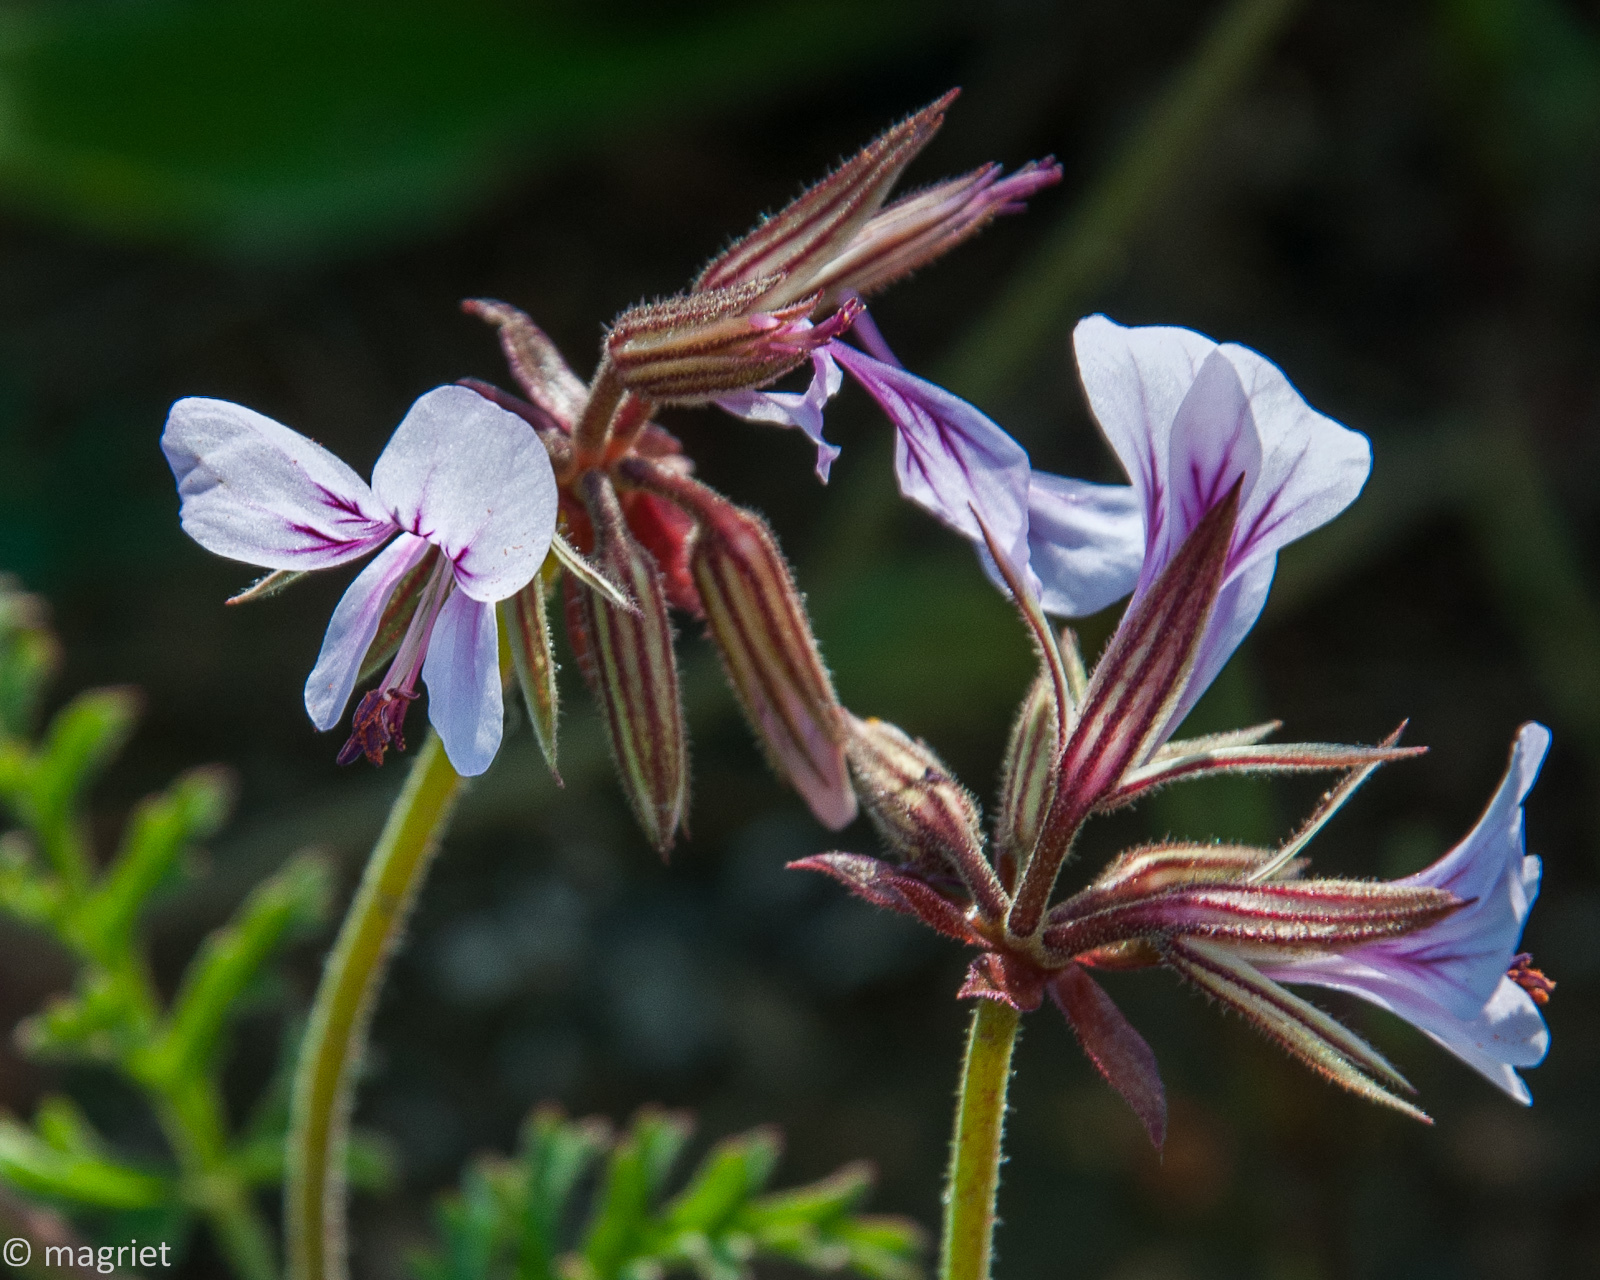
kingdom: Plantae
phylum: Tracheophyta
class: Magnoliopsida
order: Geraniales
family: Geraniaceae
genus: Pelargonium
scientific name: Pelargonium myrrhifolium
